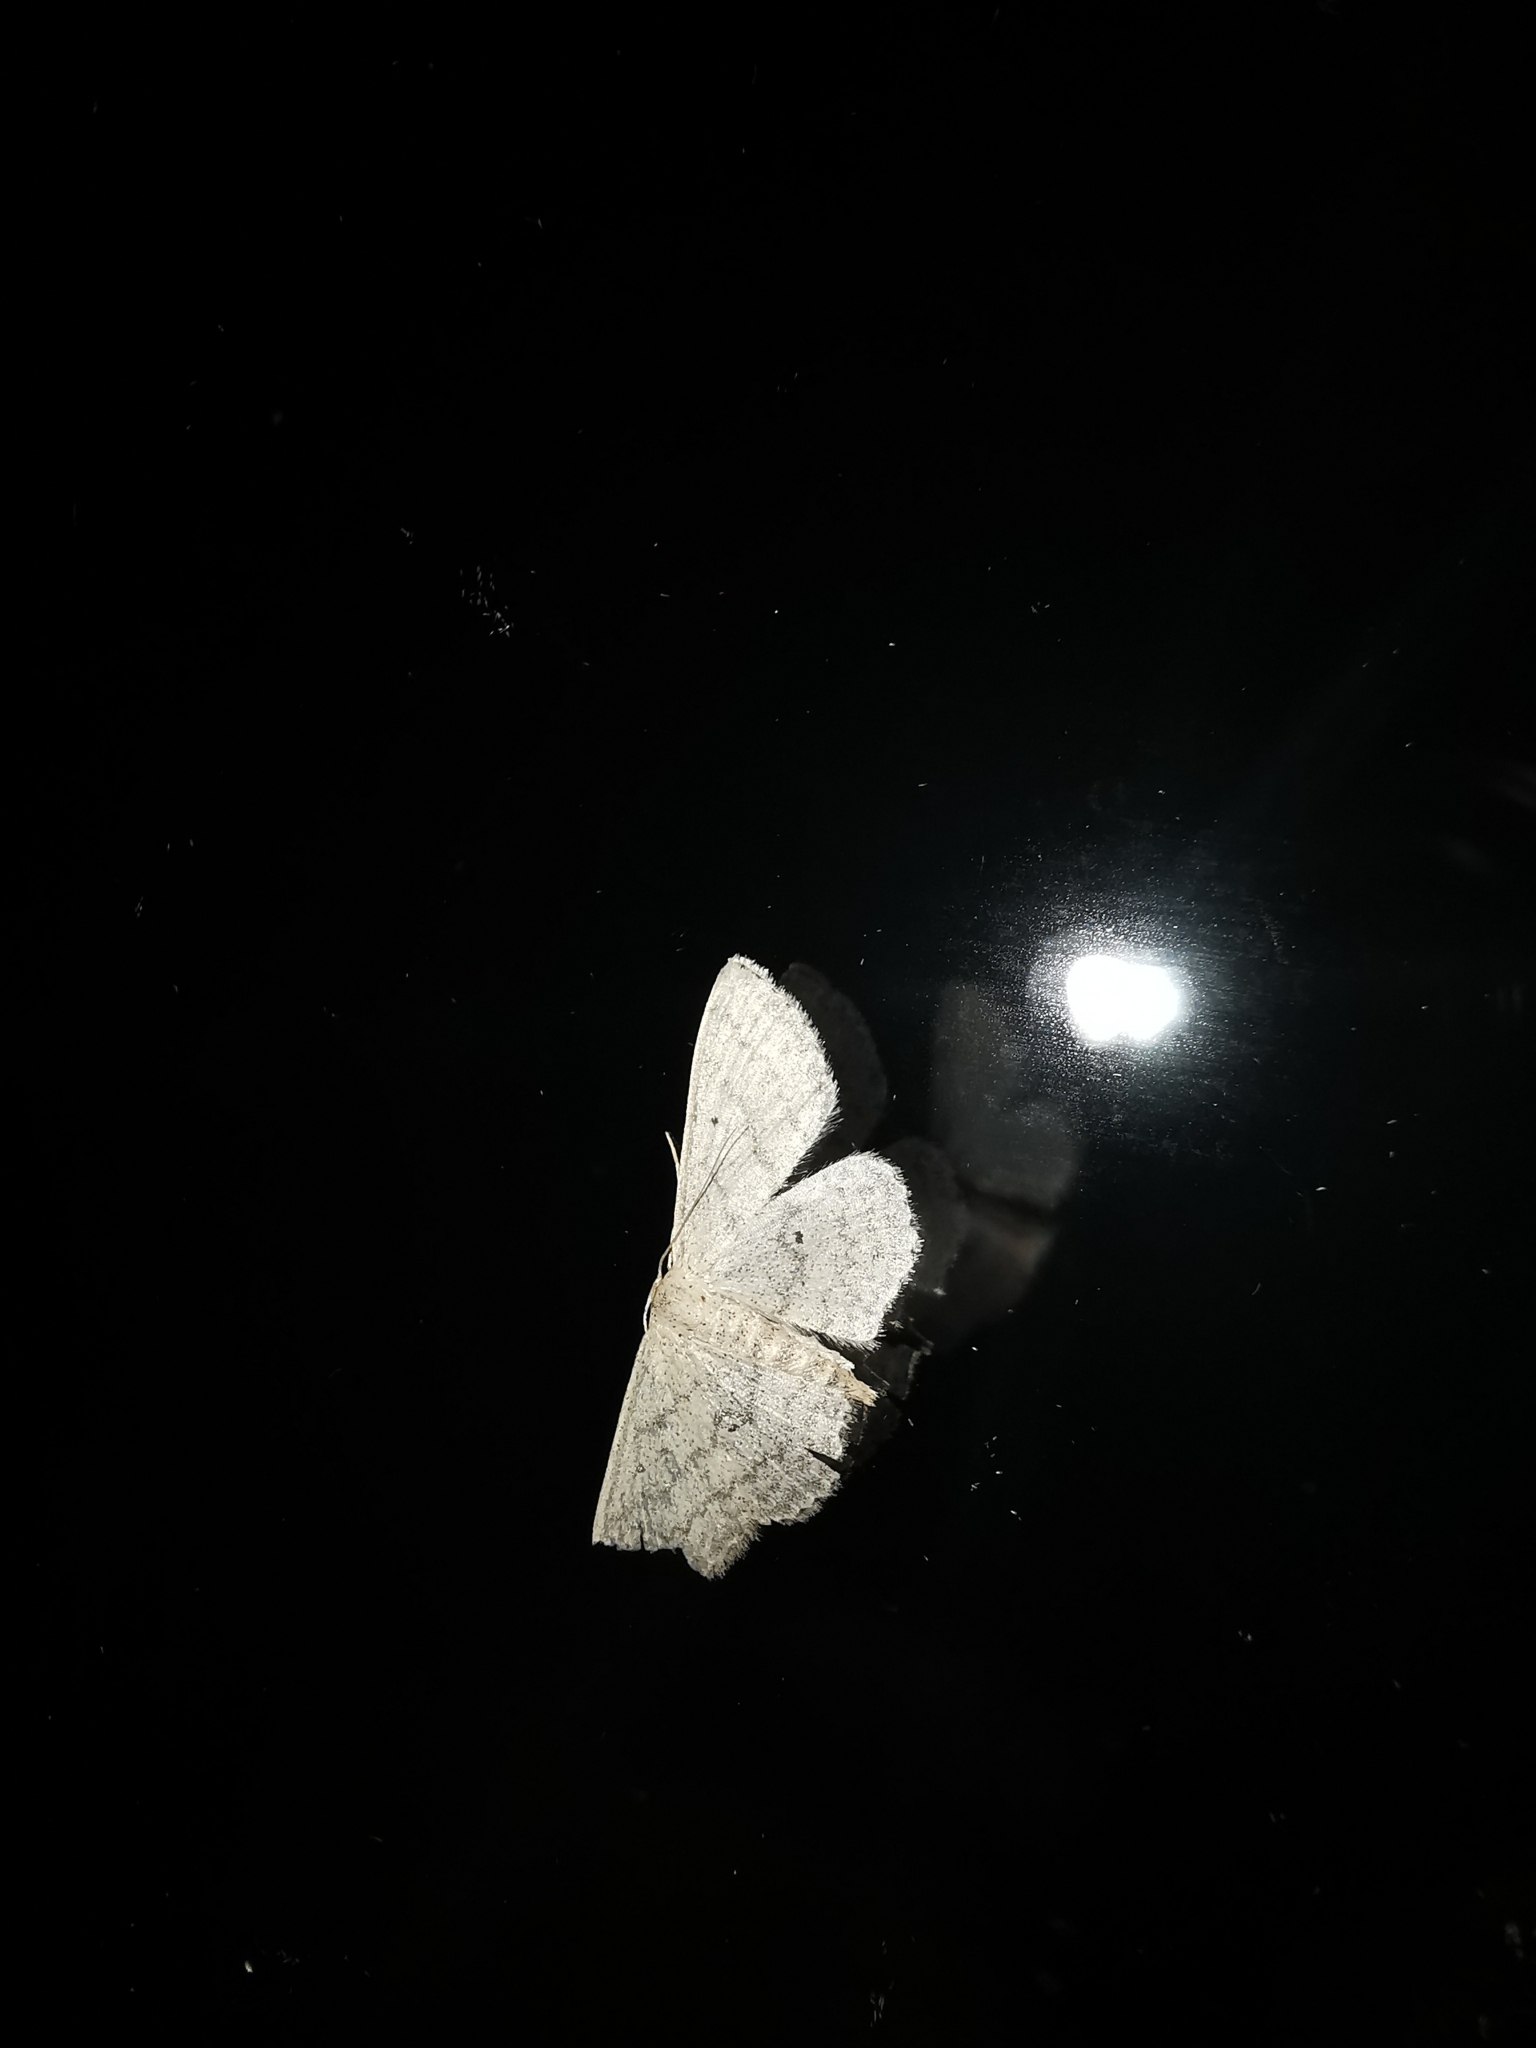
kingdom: Animalia
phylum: Arthropoda
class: Insecta
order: Lepidoptera
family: Geometridae
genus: Scopula
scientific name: Scopula minorata
